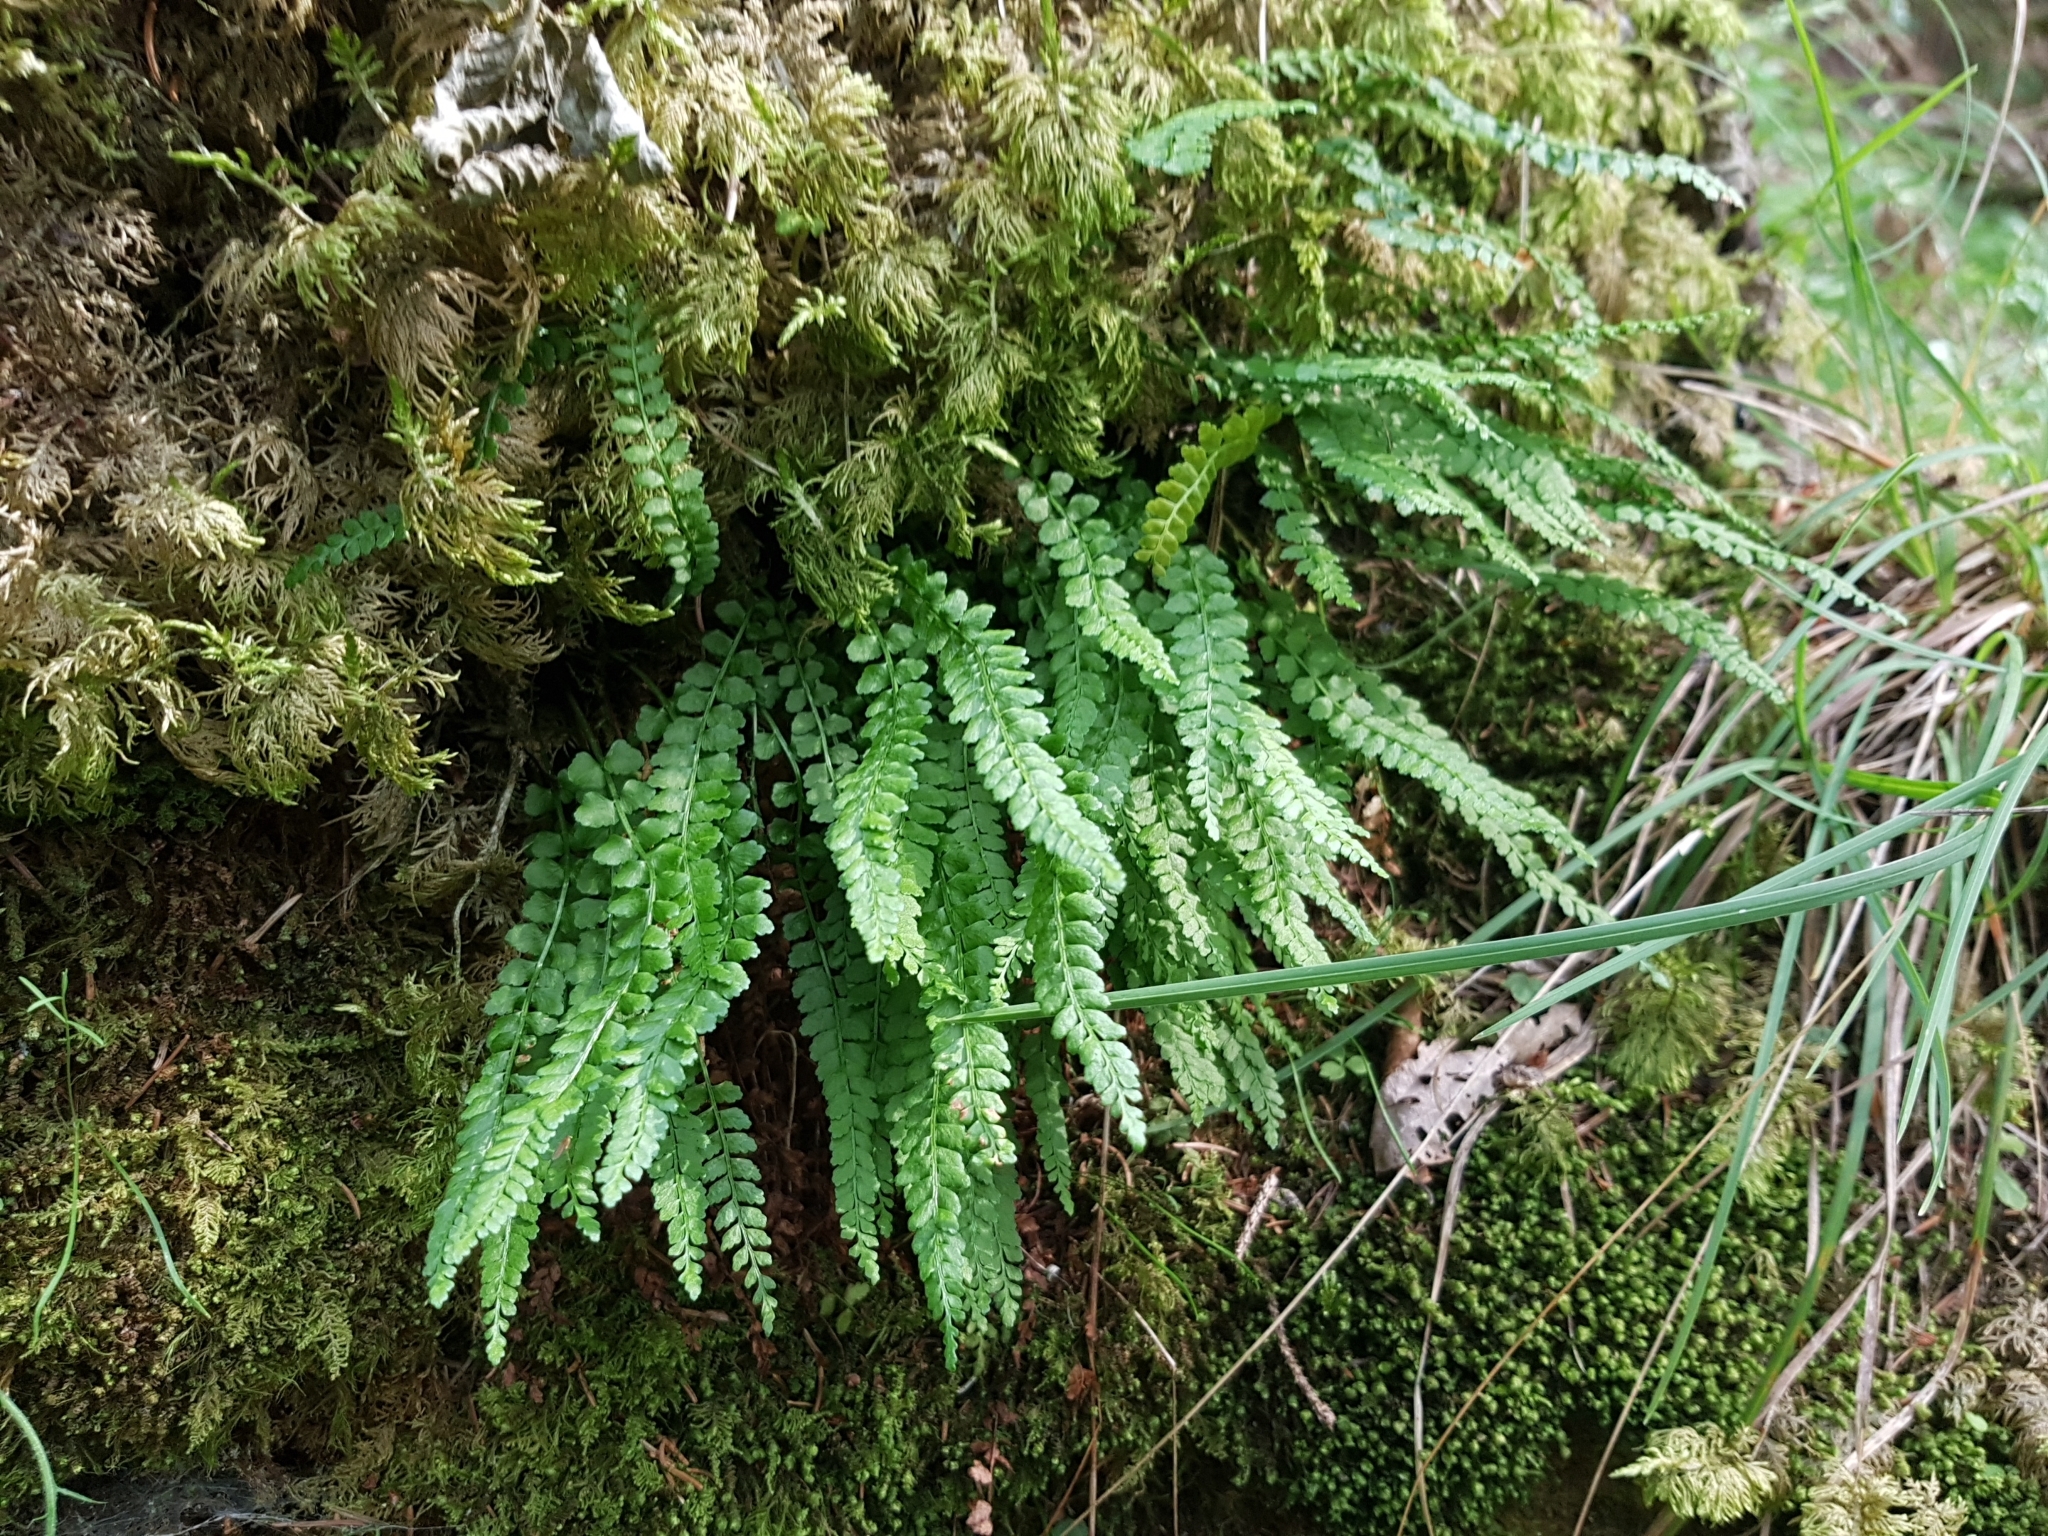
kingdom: Plantae
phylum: Tracheophyta
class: Polypodiopsida
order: Polypodiales
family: Aspleniaceae
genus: Asplenium
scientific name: Asplenium viride
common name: Green spleenwort
